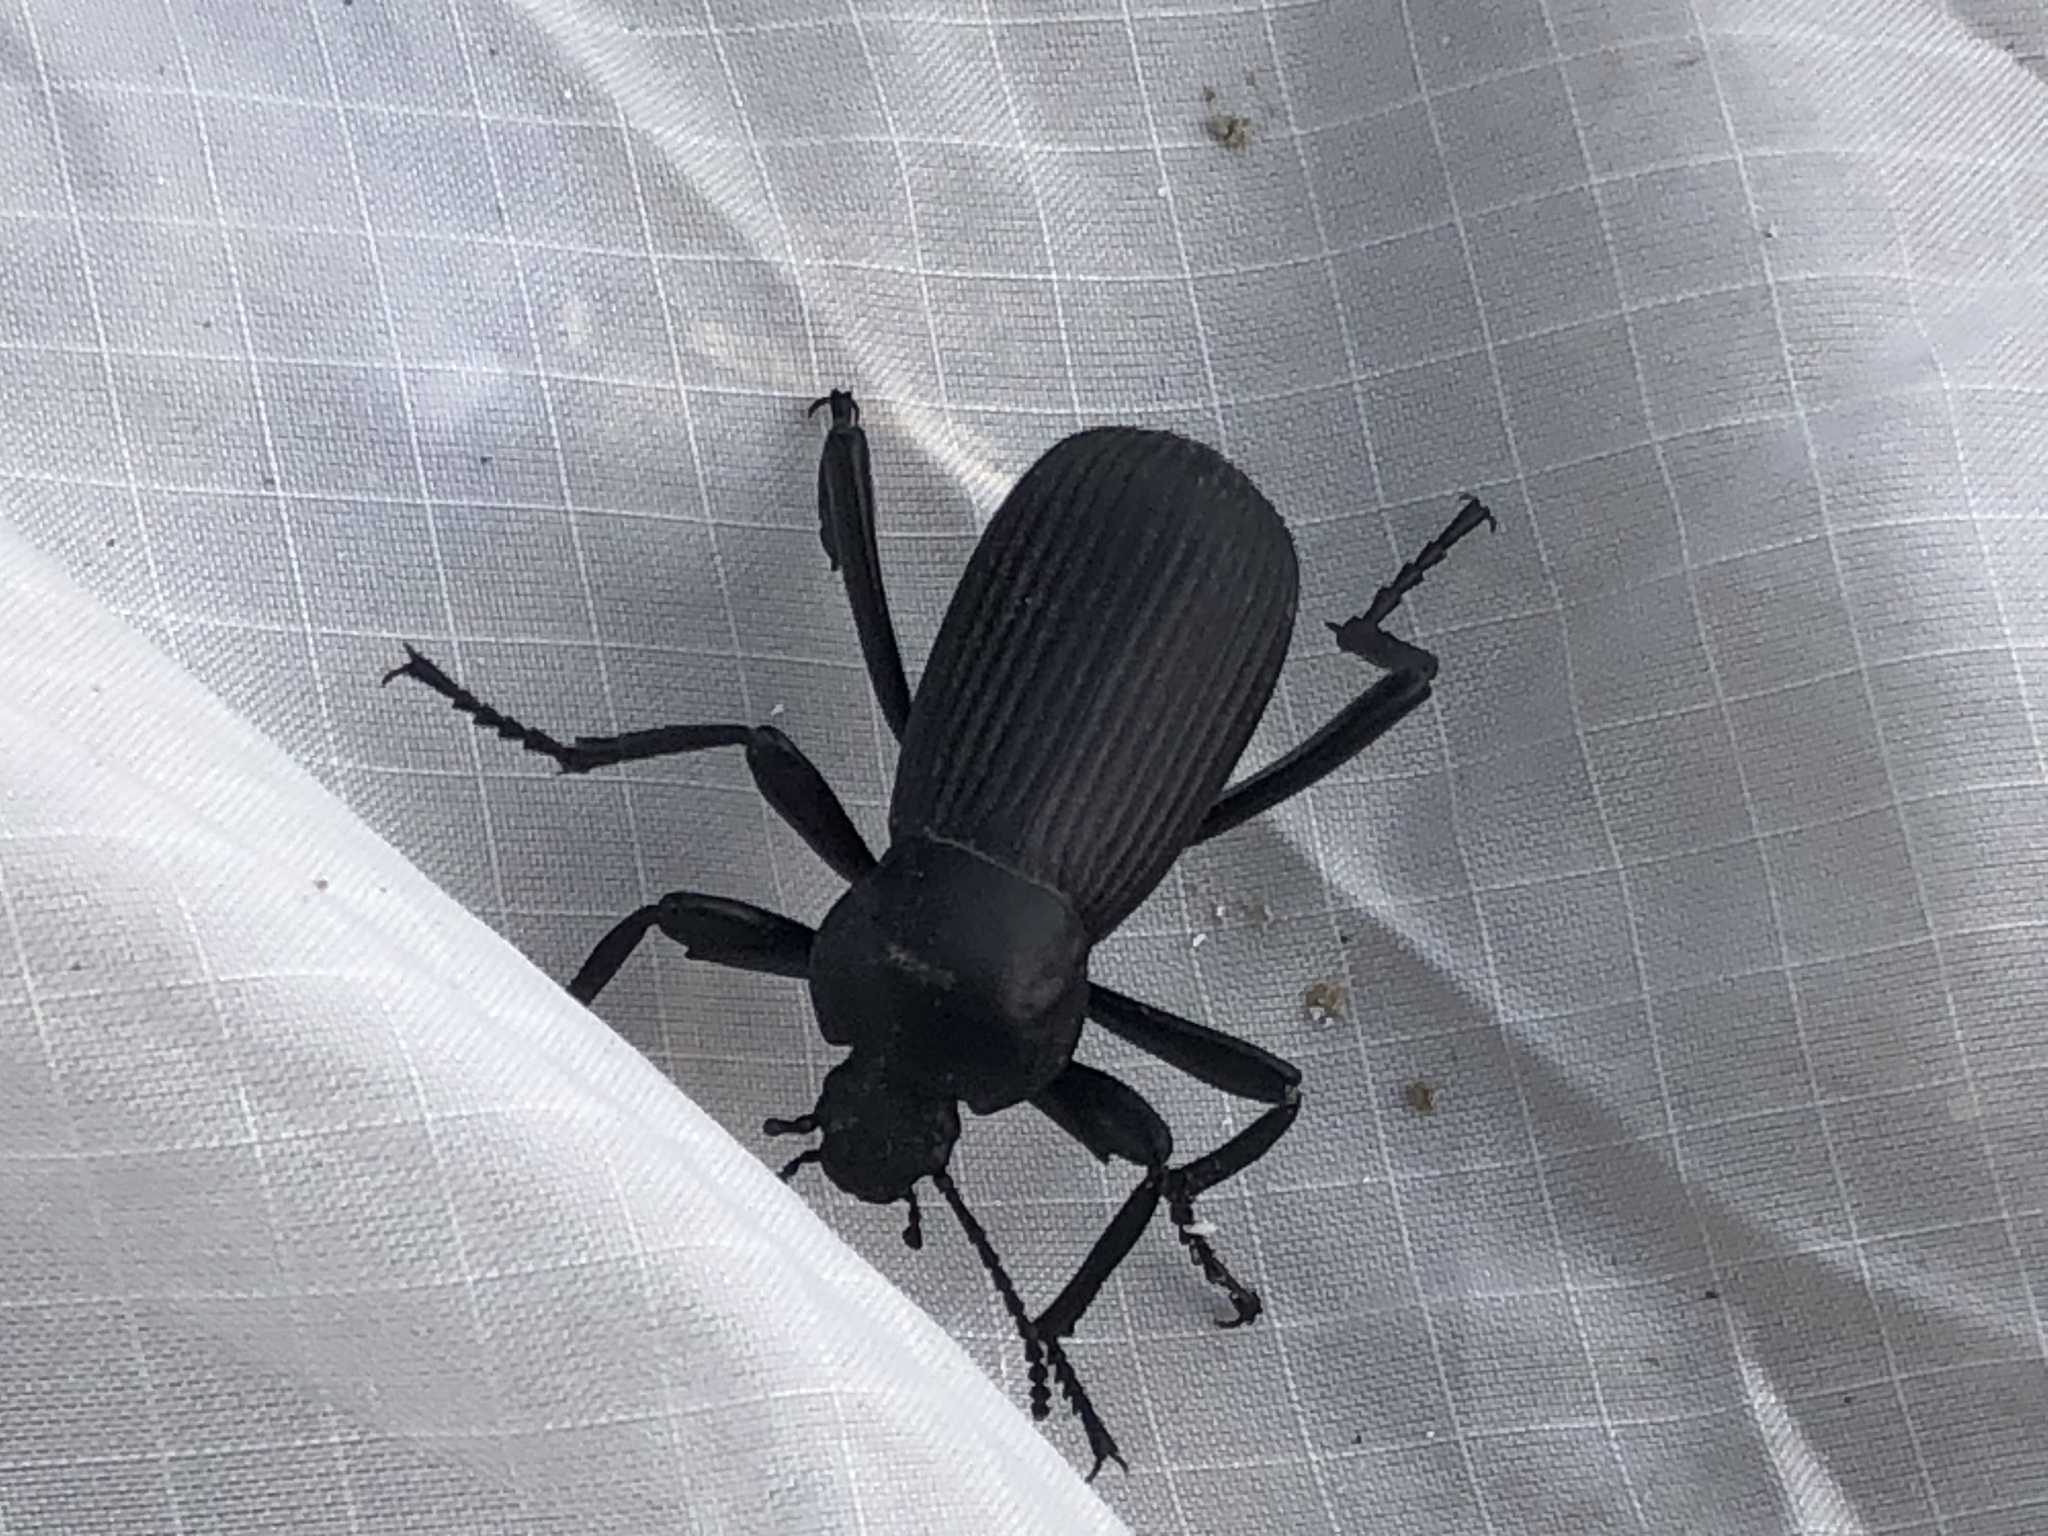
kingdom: Animalia
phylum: Arthropoda
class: Insecta
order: Coleoptera
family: Tenebrionidae
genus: Eleodes
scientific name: Eleodes obscura
